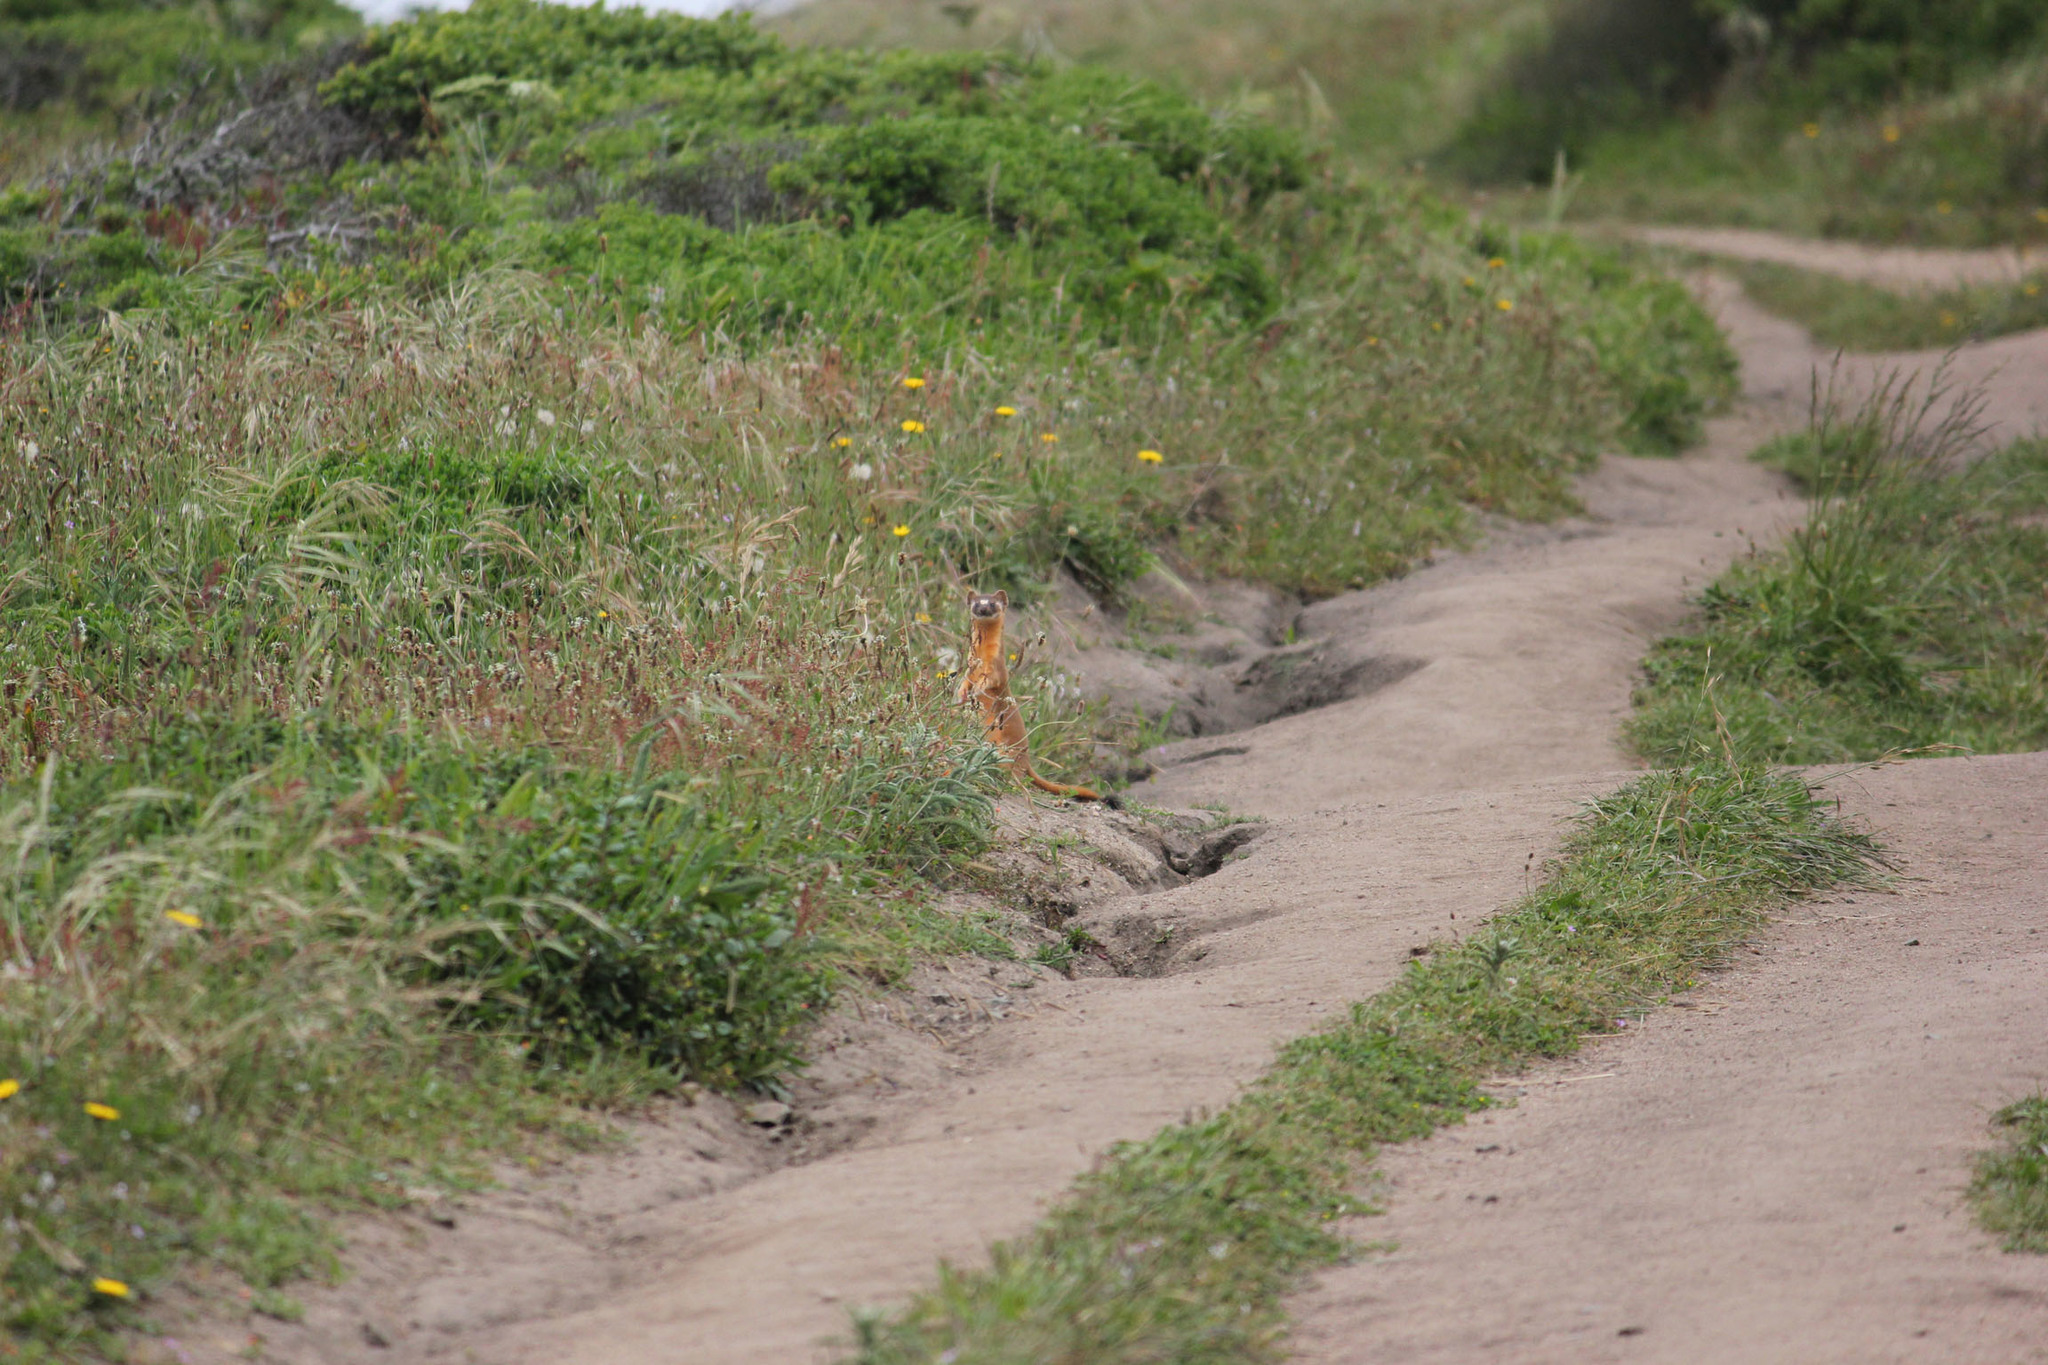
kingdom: Animalia
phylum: Chordata
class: Mammalia
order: Carnivora
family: Mustelidae
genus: Mustela
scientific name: Mustela
